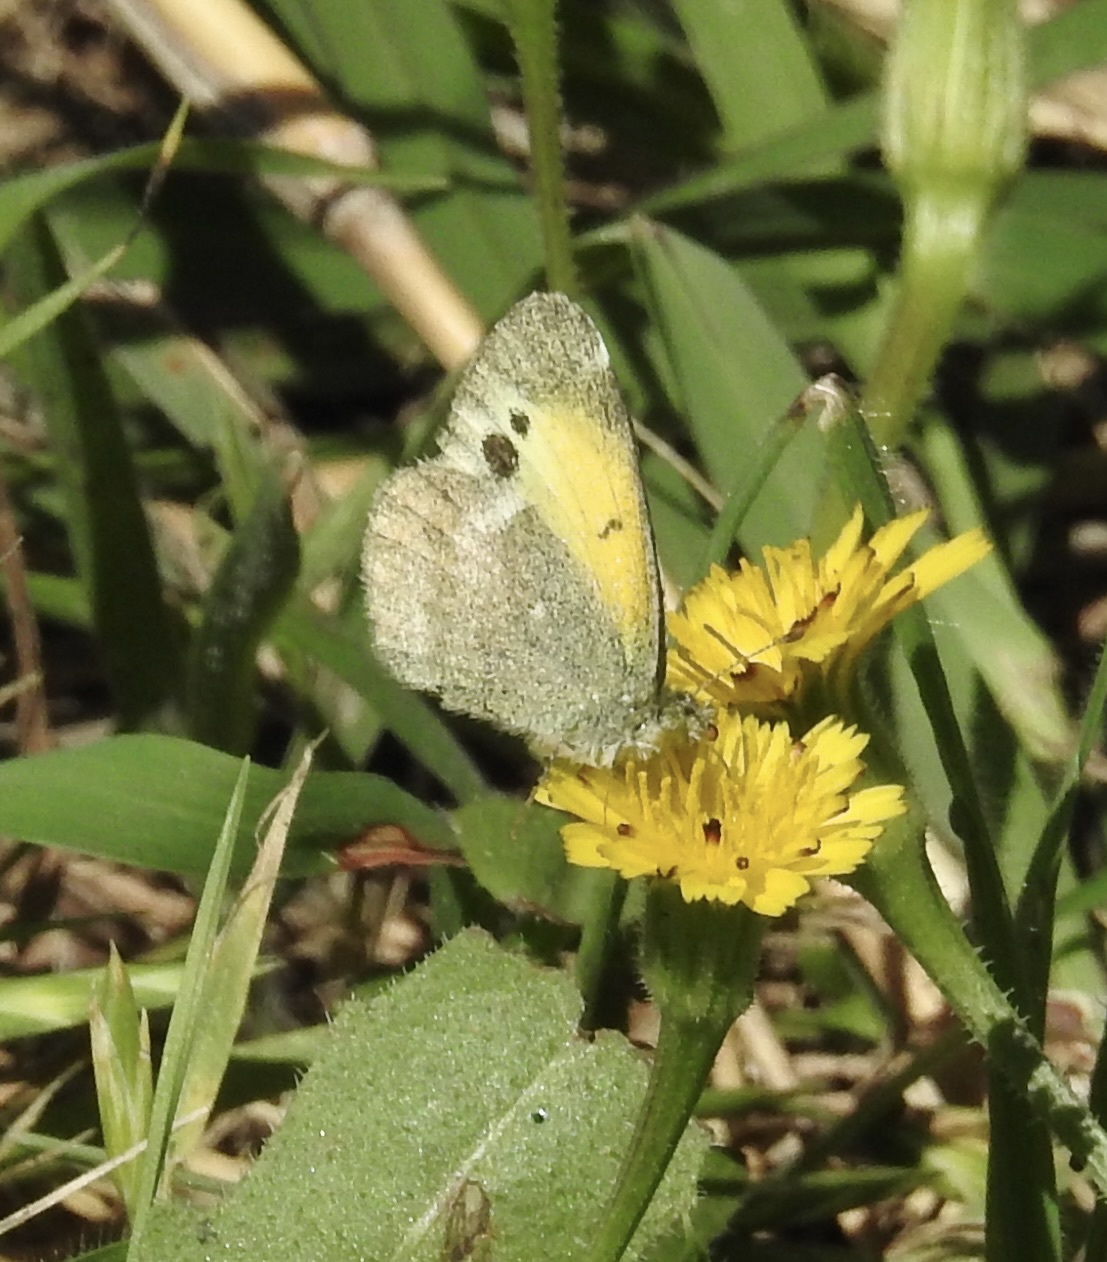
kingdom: Animalia
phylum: Arthropoda
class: Insecta
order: Lepidoptera
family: Pieridae
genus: Nathalis
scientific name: Nathalis iole
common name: Dainty sulphur
